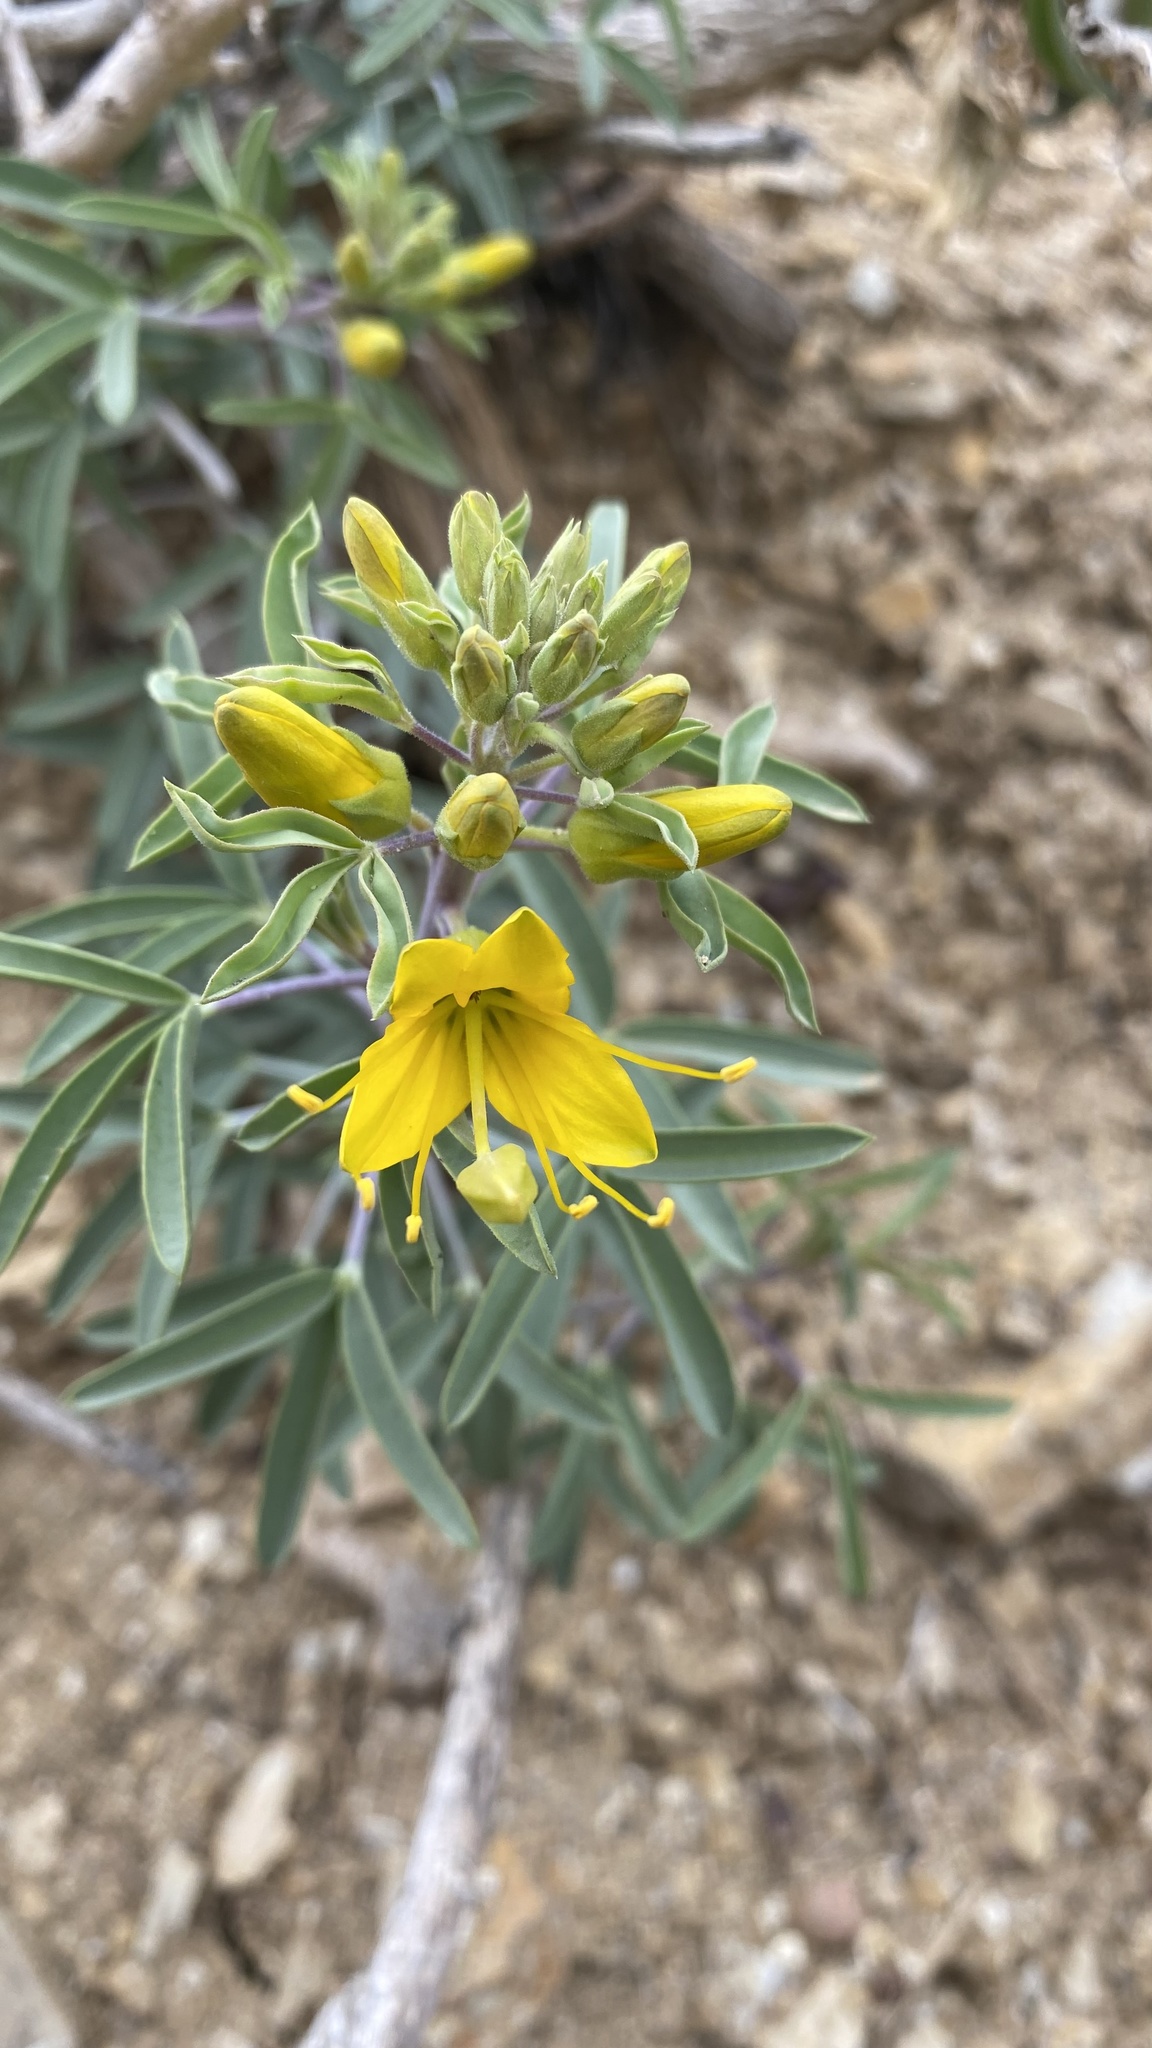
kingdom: Plantae
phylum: Tracheophyta
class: Magnoliopsida
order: Brassicales
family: Cleomaceae
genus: Cleomella
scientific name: Cleomella arborea
